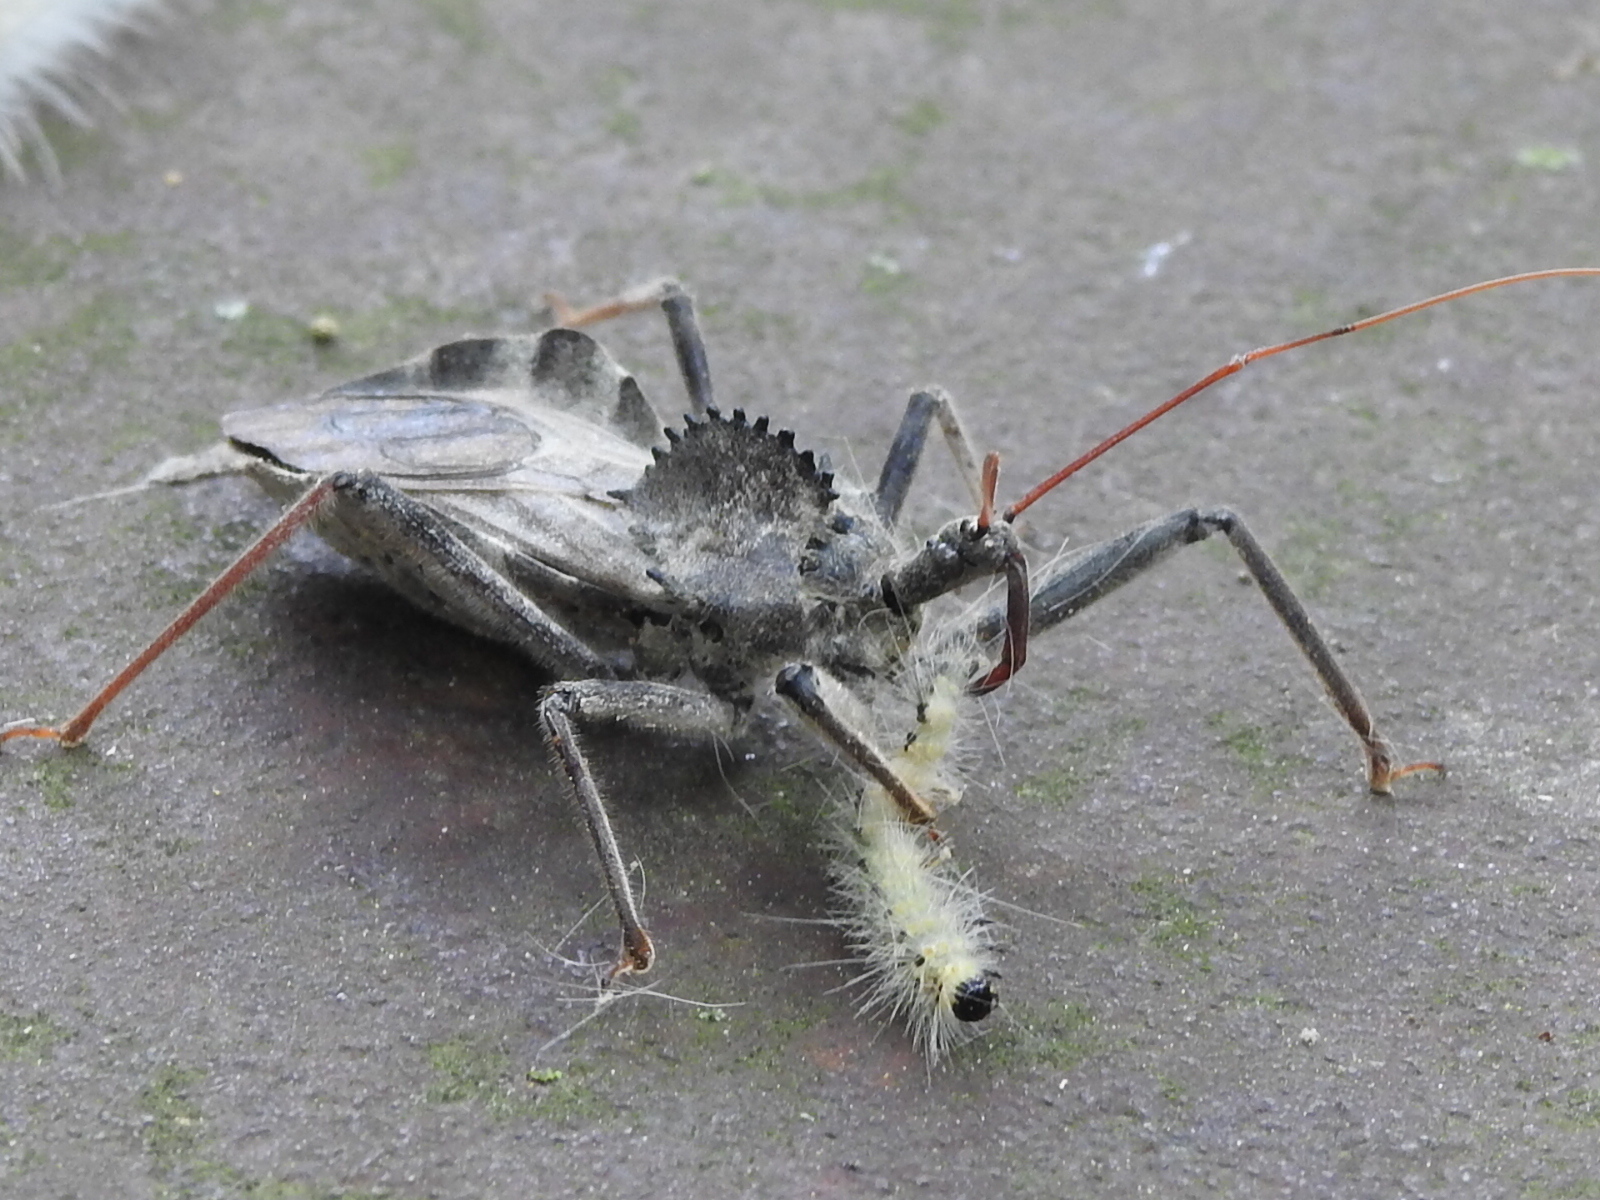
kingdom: Animalia
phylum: Arthropoda
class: Insecta
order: Hemiptera
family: Reduviidae
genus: Arilus
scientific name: Arilus cristatus
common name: North american wheel bug
